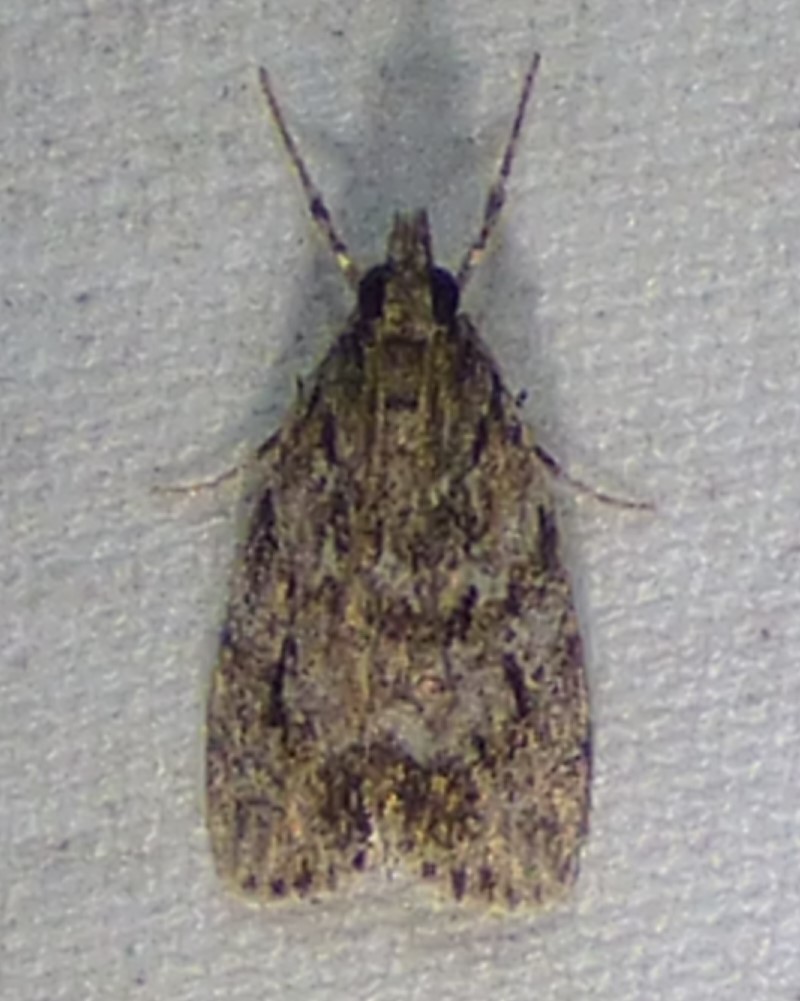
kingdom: Animalia
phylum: Arthropoda
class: Insecta
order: Lepidoptera
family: Crambidae
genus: Scoparia
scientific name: Scoparia basalis
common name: Many-spotted scoparia moth
